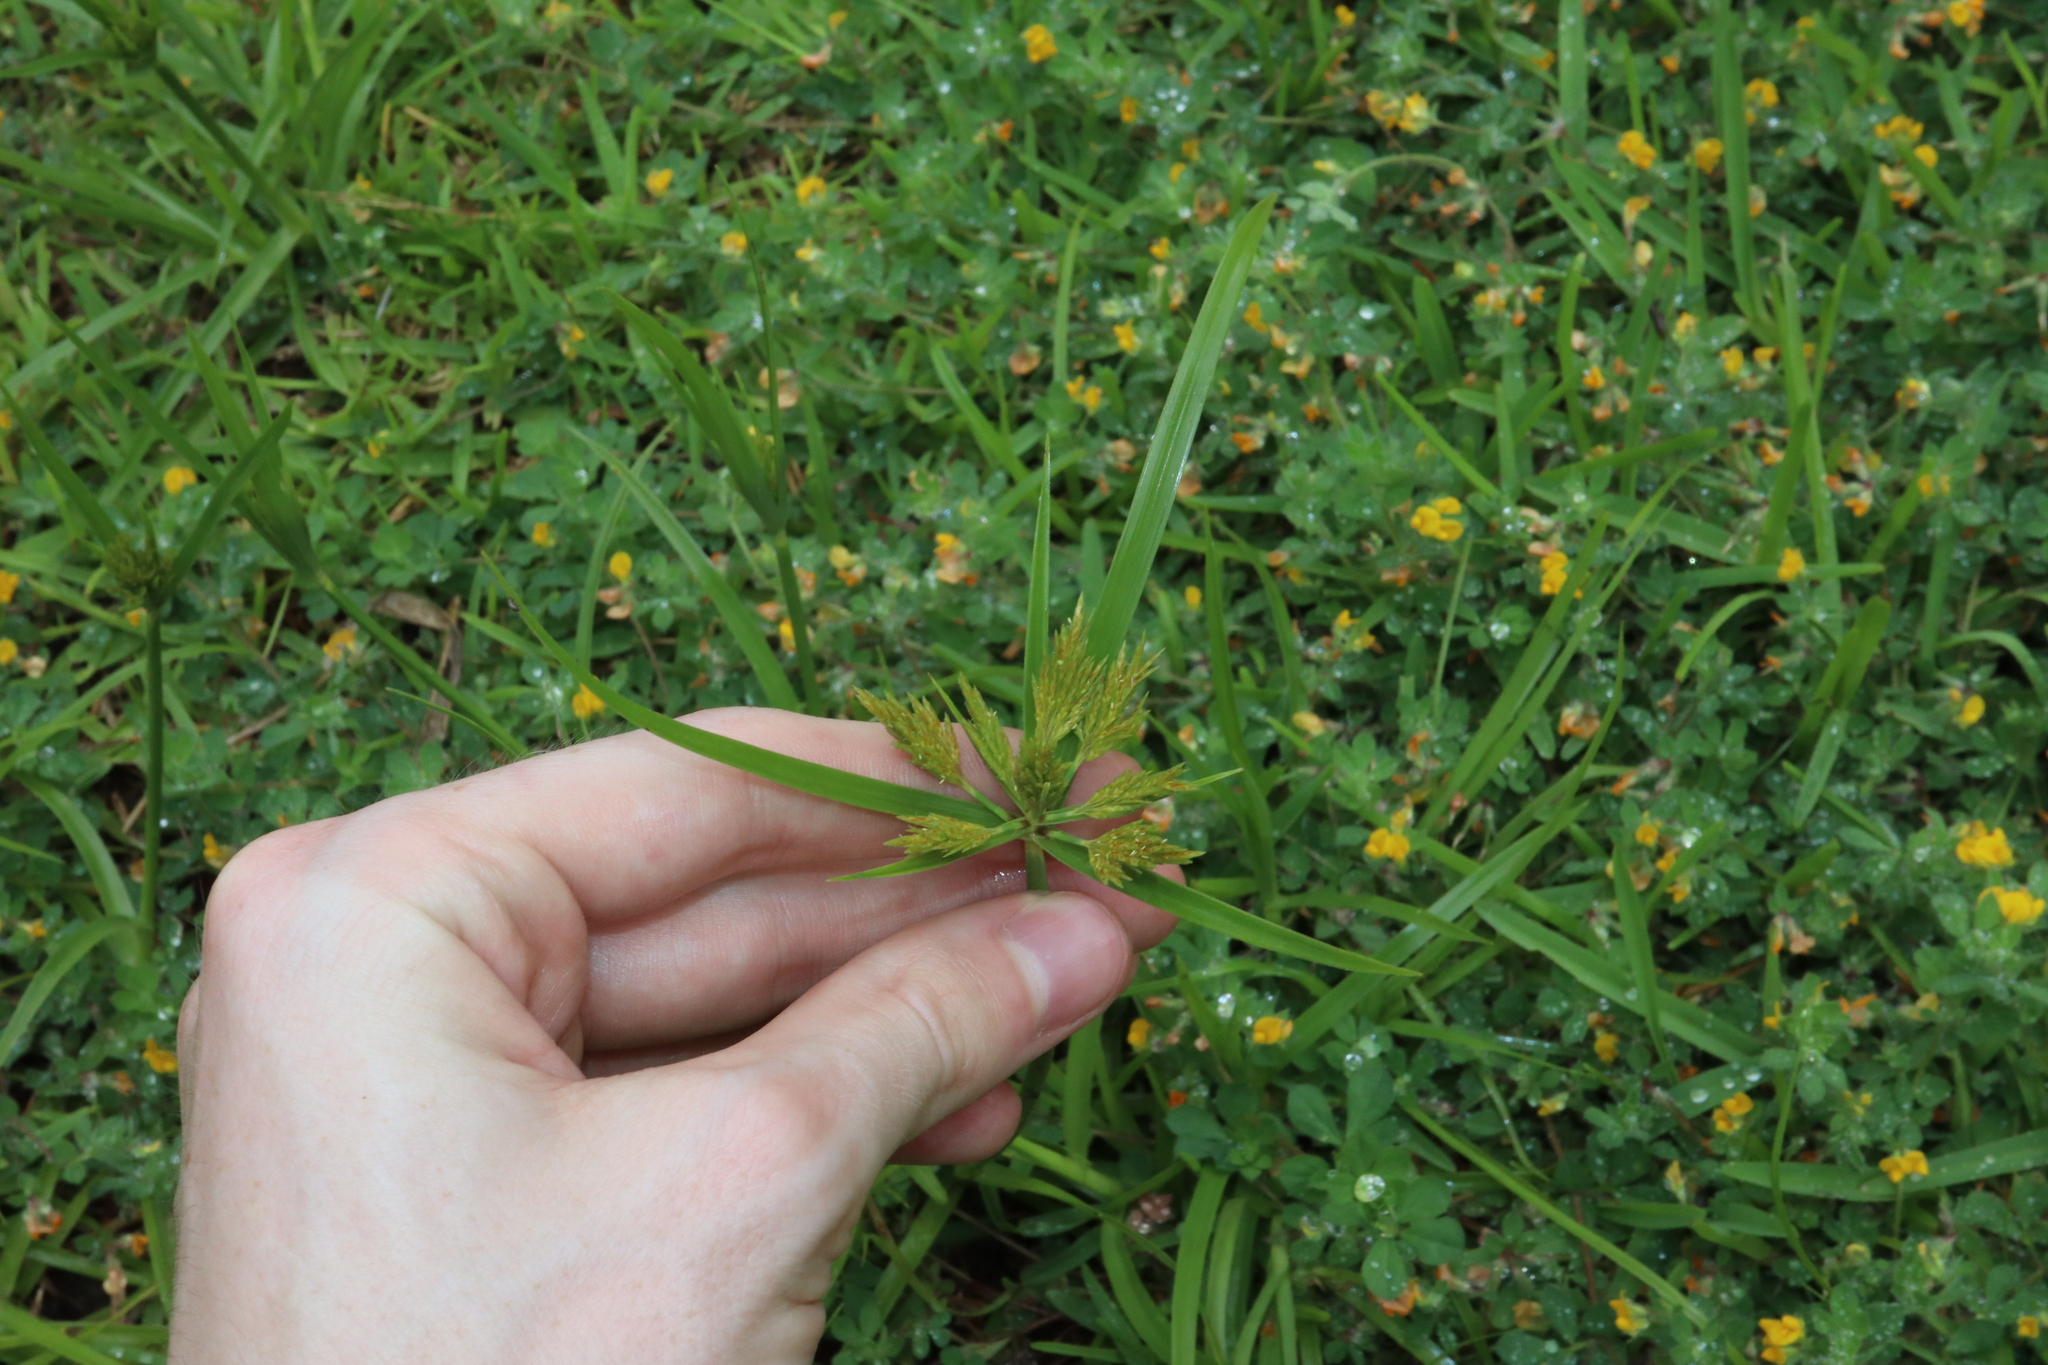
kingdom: Plantae
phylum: Tracheophyta
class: Liliopsida
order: Poales
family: Cyperaceae
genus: Cyperus
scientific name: Cyperus polystachyos
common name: Bunchy flat sedge
